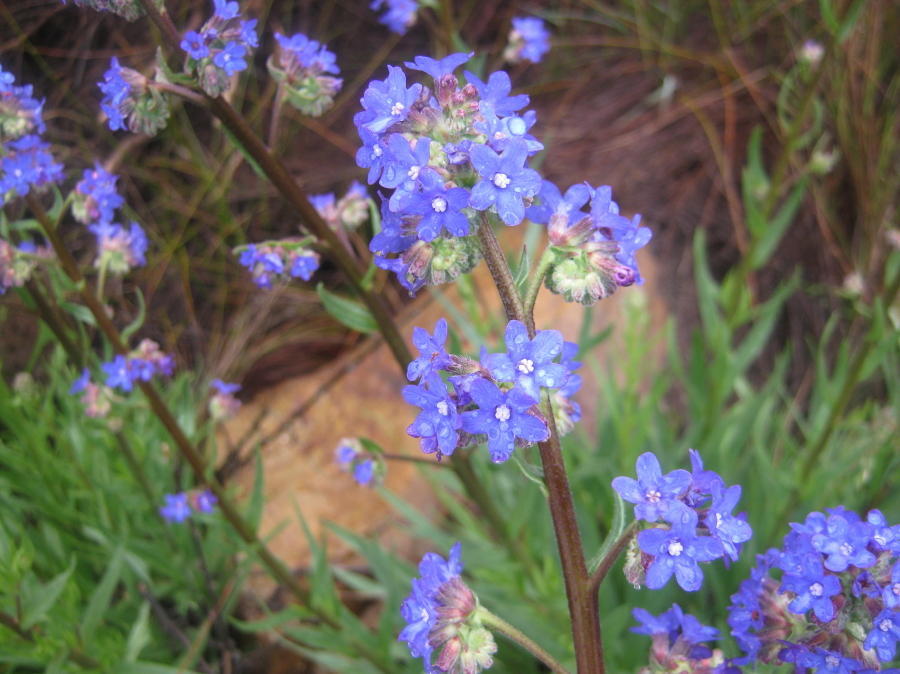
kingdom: Plantae
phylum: Tracheophyta
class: Magnoliopsida
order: Boraginales
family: Boraginaceae
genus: Anchusa
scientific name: Anchusa capensis
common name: Cape bugloss
